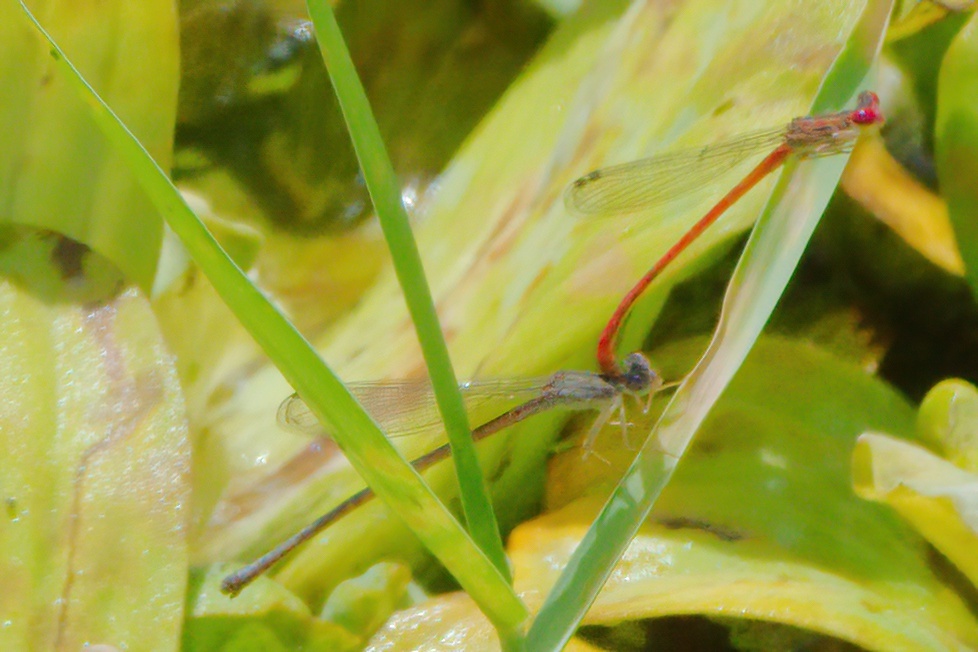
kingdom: Animalia
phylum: Arthropoda
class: Insecta
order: Odonata
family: Coenagrionidae
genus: Telebasis
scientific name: Telebasis byersi
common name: Duckweed firetail
